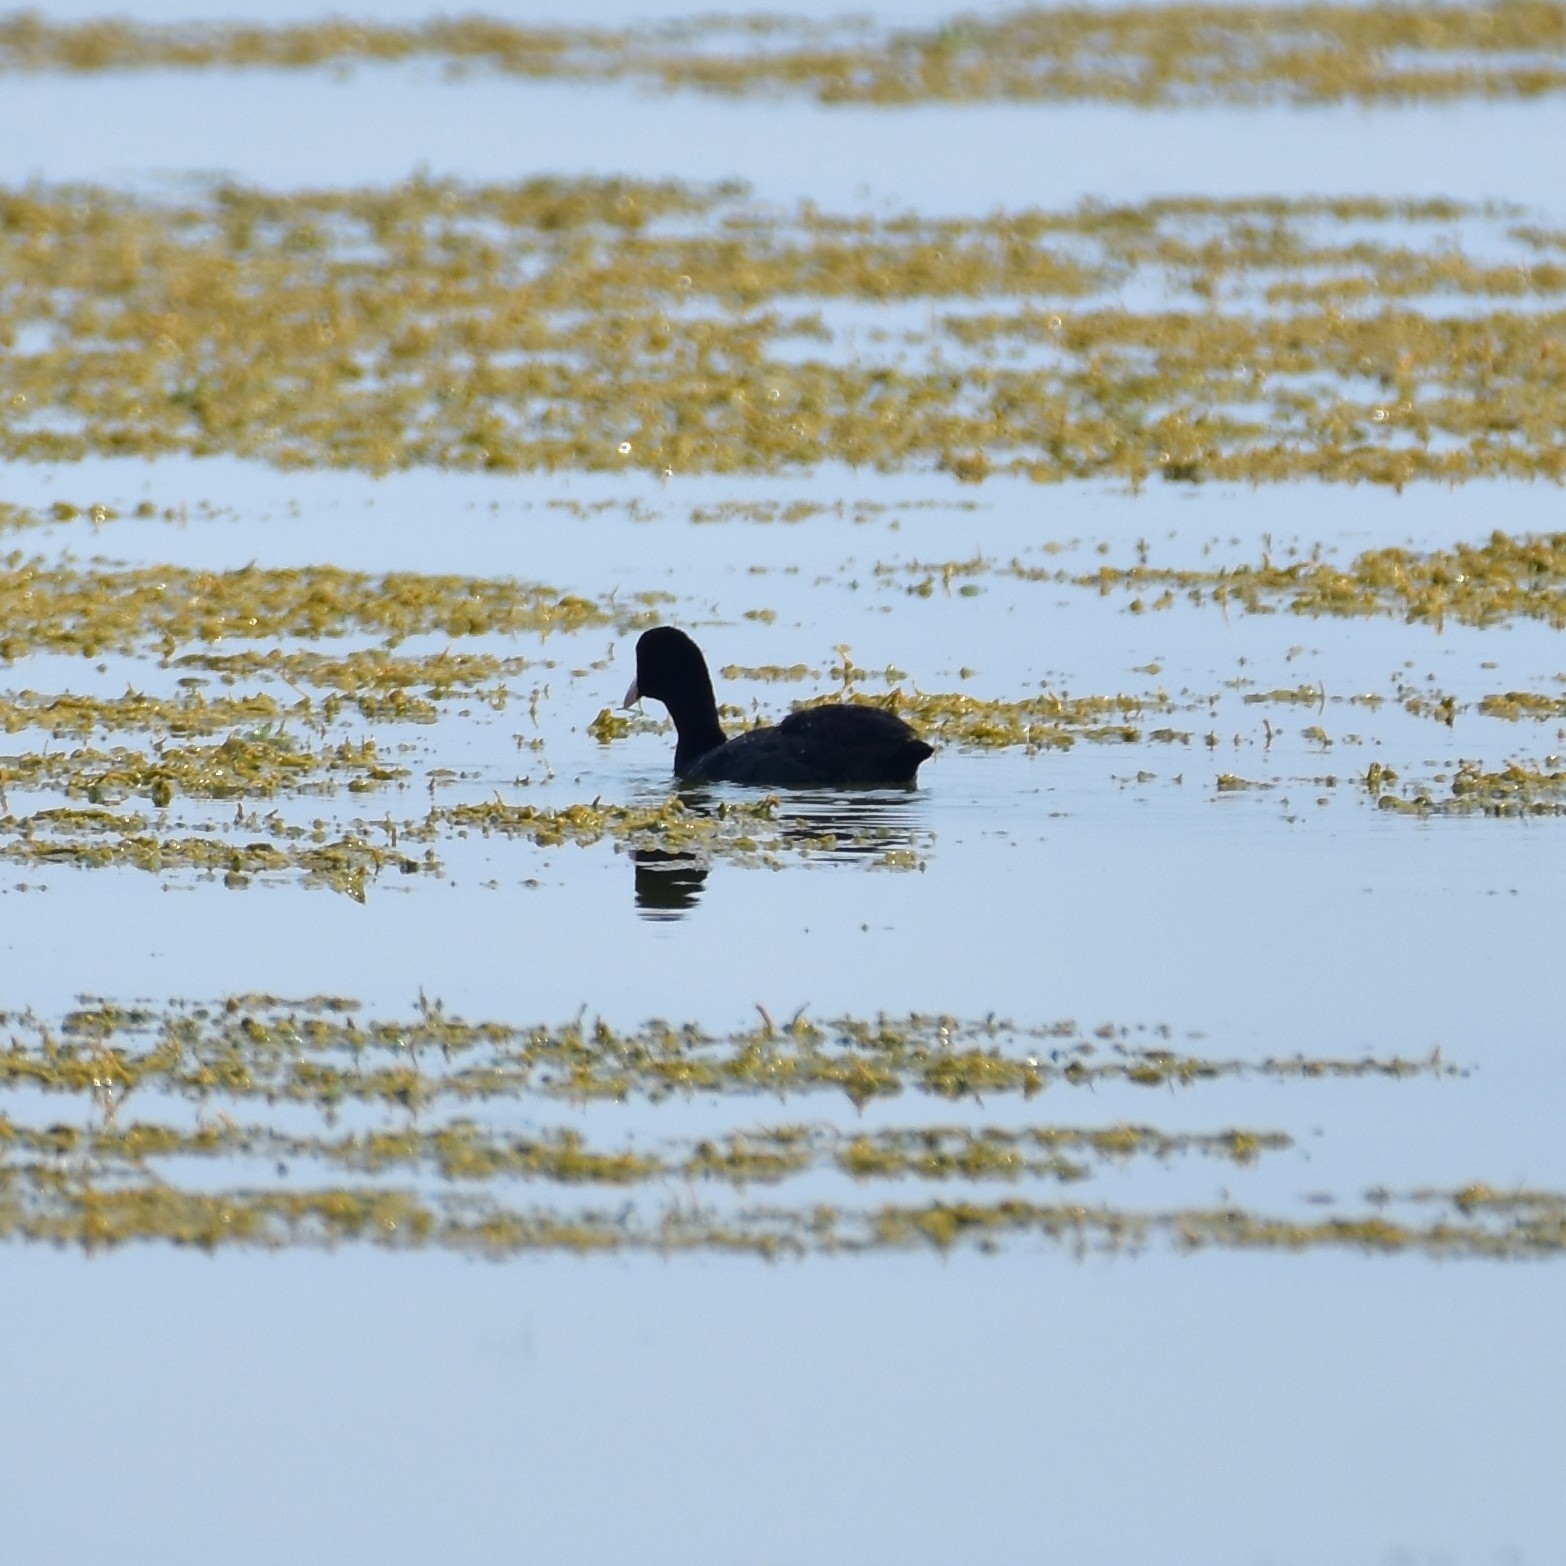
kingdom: Animalia
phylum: Chordata
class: Aves
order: Gruiformes
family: Rallidae
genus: Fulica
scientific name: Fulica atra
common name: Eurasian coot
